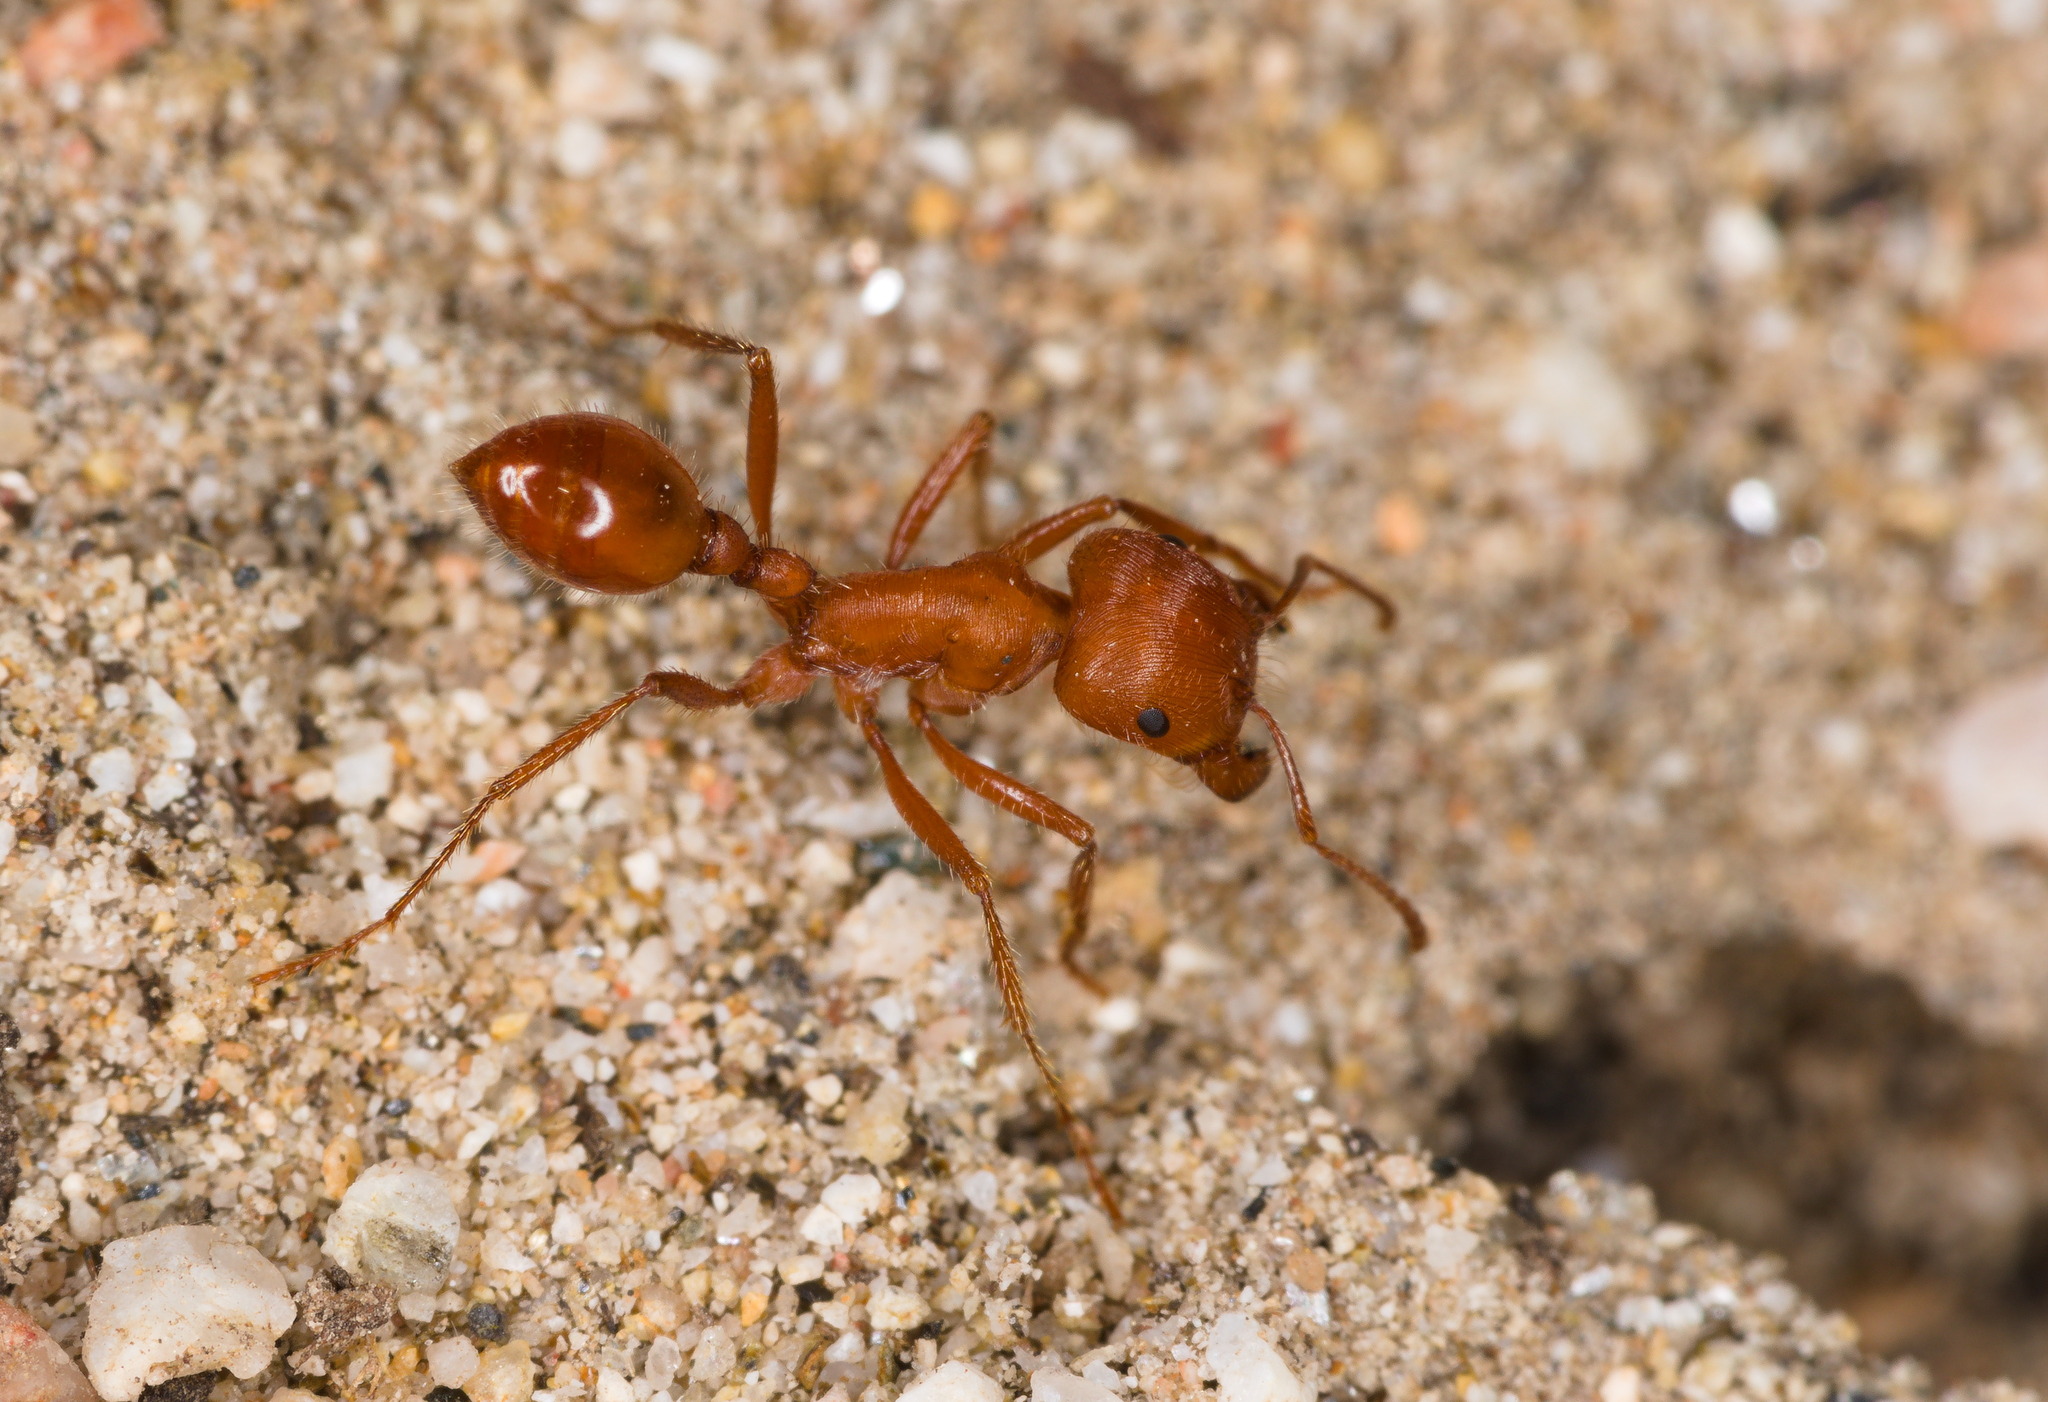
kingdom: Animalia
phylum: Arthropoda
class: Insecta
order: Hymenoptera
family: Formicidae
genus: Pogonomyrmex
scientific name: Pogonomyrmex maricopa
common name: Maricopa harvester ant
